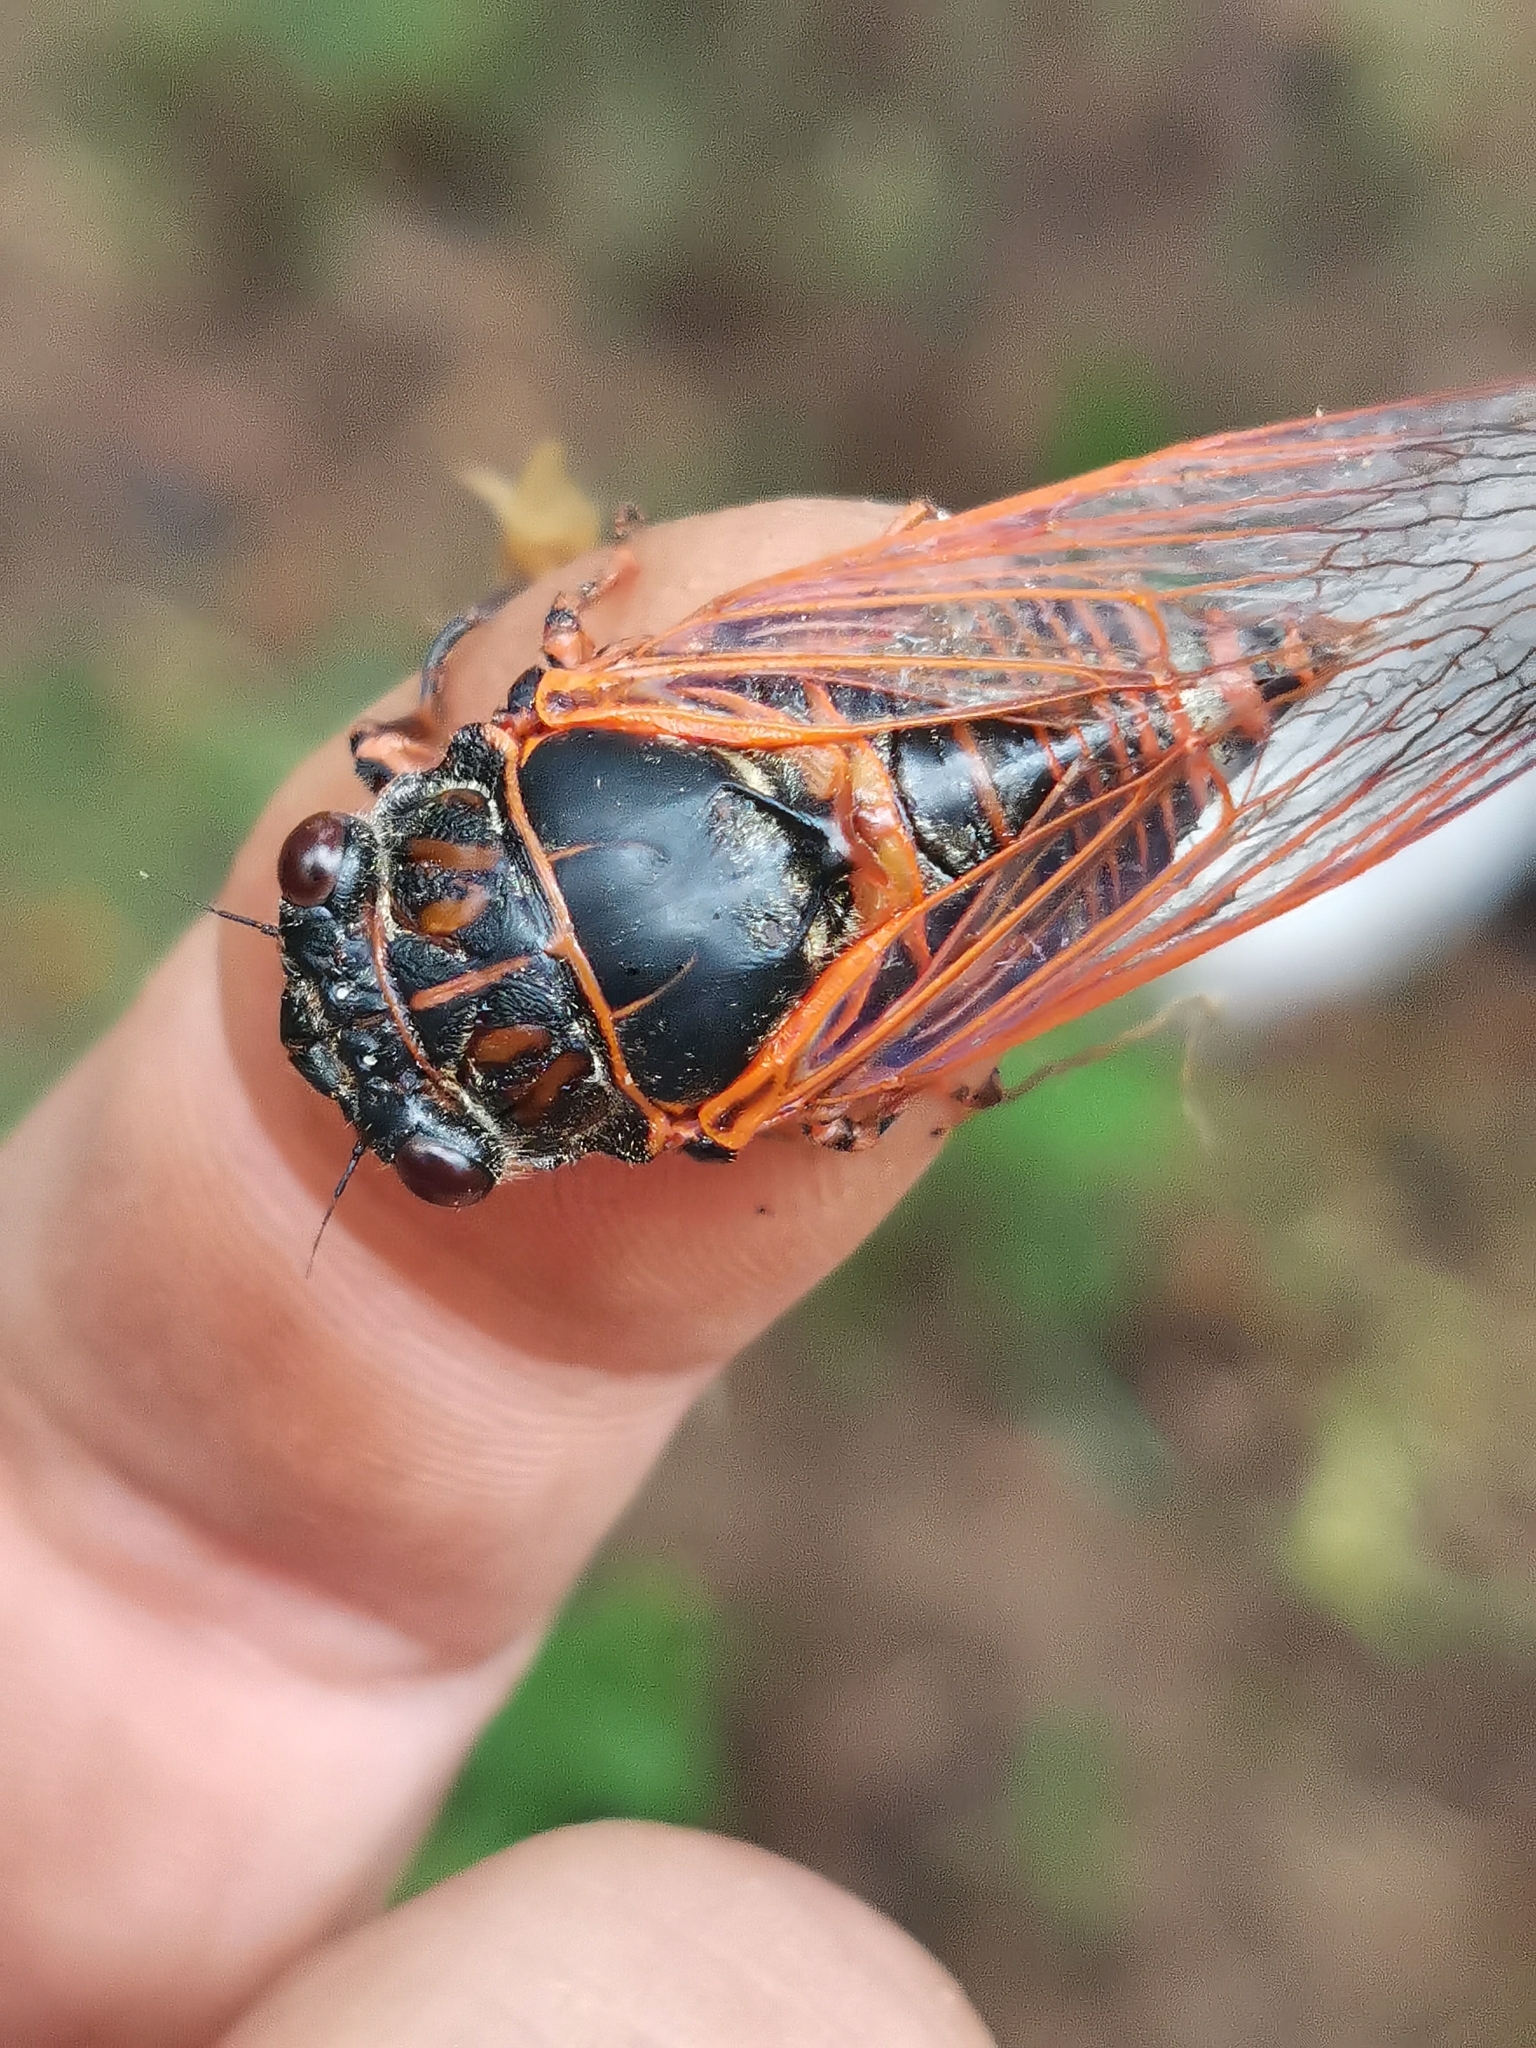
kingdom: Animalia
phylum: Arthropoda
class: Insecta
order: Hemiptera
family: Cicadidae
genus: Tibicina
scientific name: Tibicina haematodes
